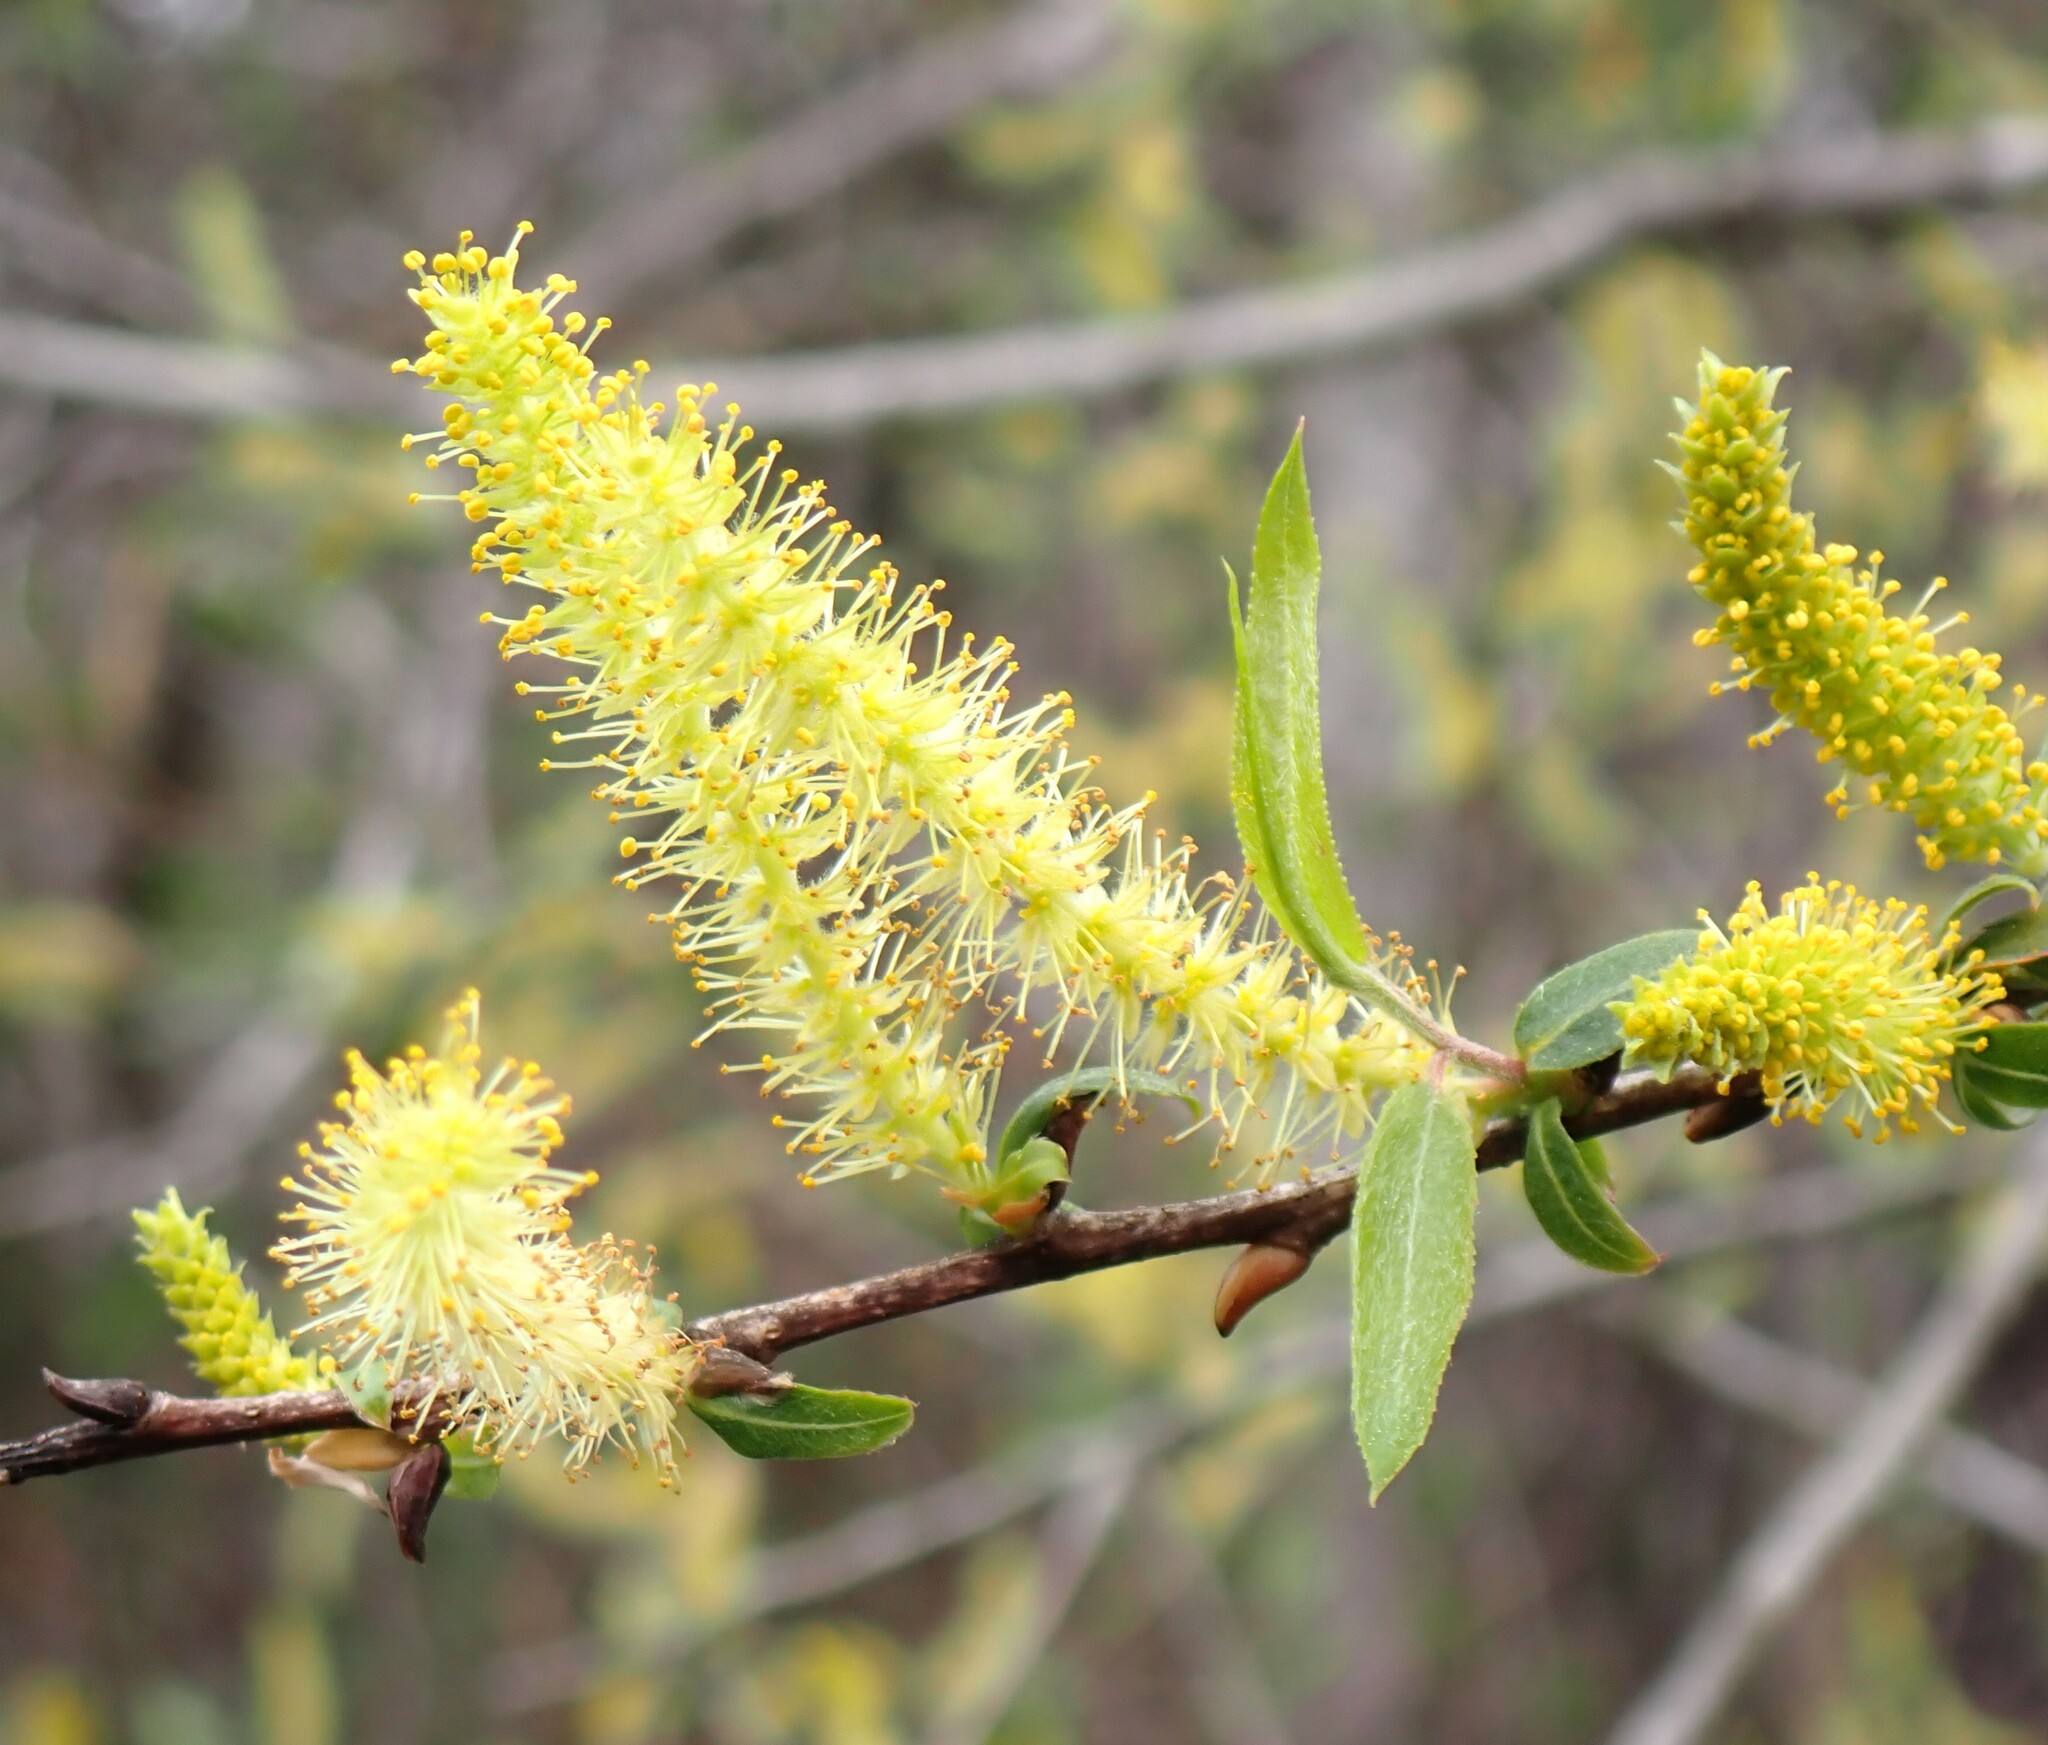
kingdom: Plantae
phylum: Tracheophyta
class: Magnoliopsida
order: Malpighiales
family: Salicaceae
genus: Salix
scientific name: Salix caroliniana
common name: Carolina willow
